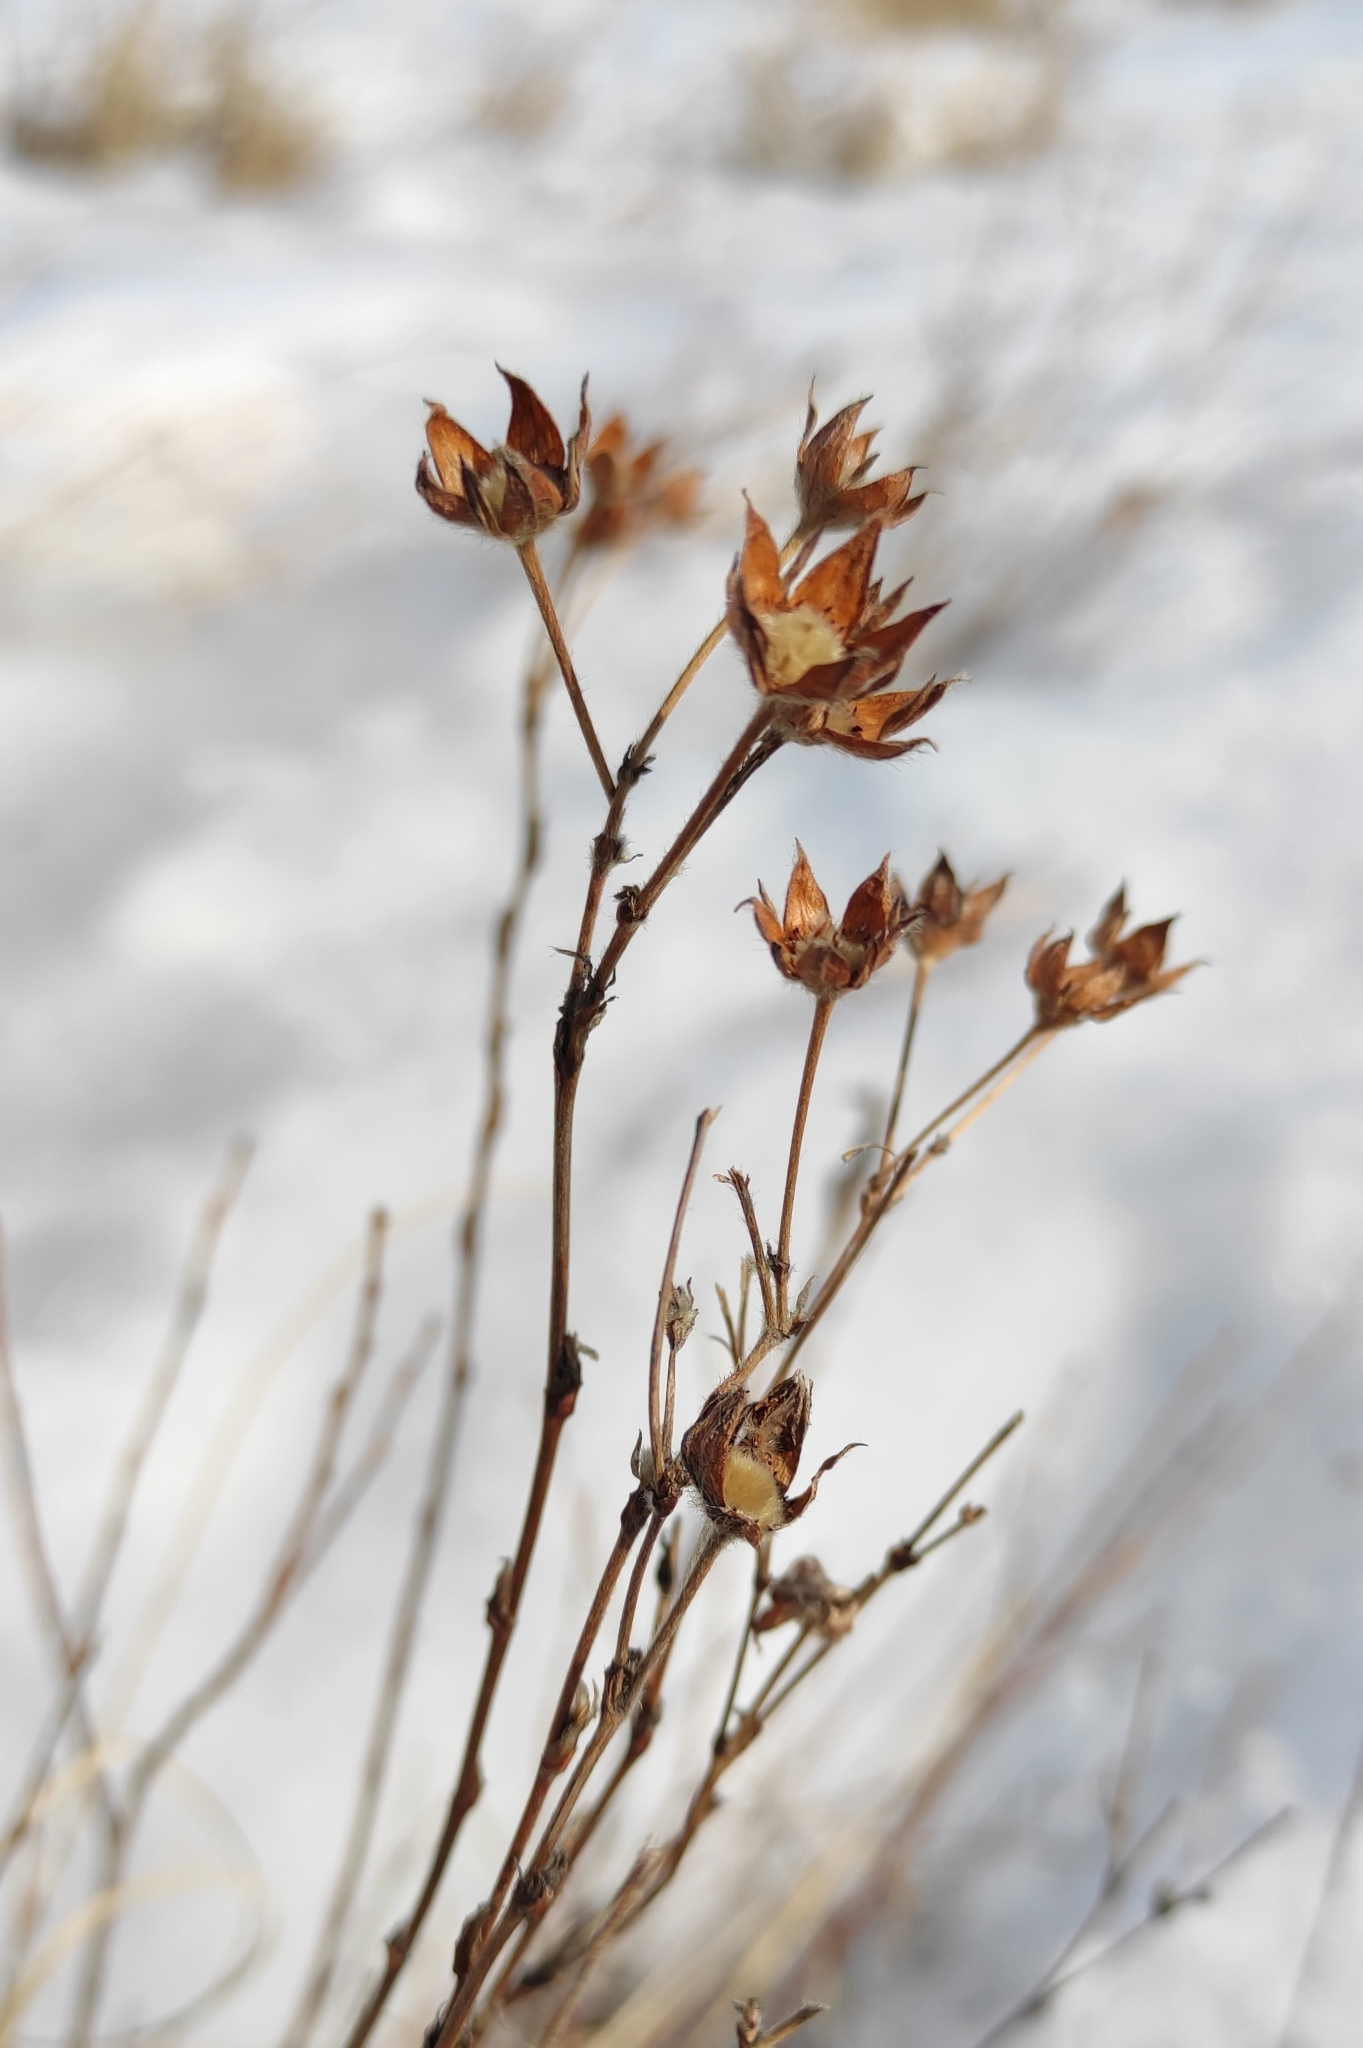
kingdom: Plantae
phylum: Tracheophyta
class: Magnoliopsida
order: Rosales
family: Rosaceae
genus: Dasiphora
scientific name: Dasiphora fruticosa
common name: Shrubby cinquefoil
